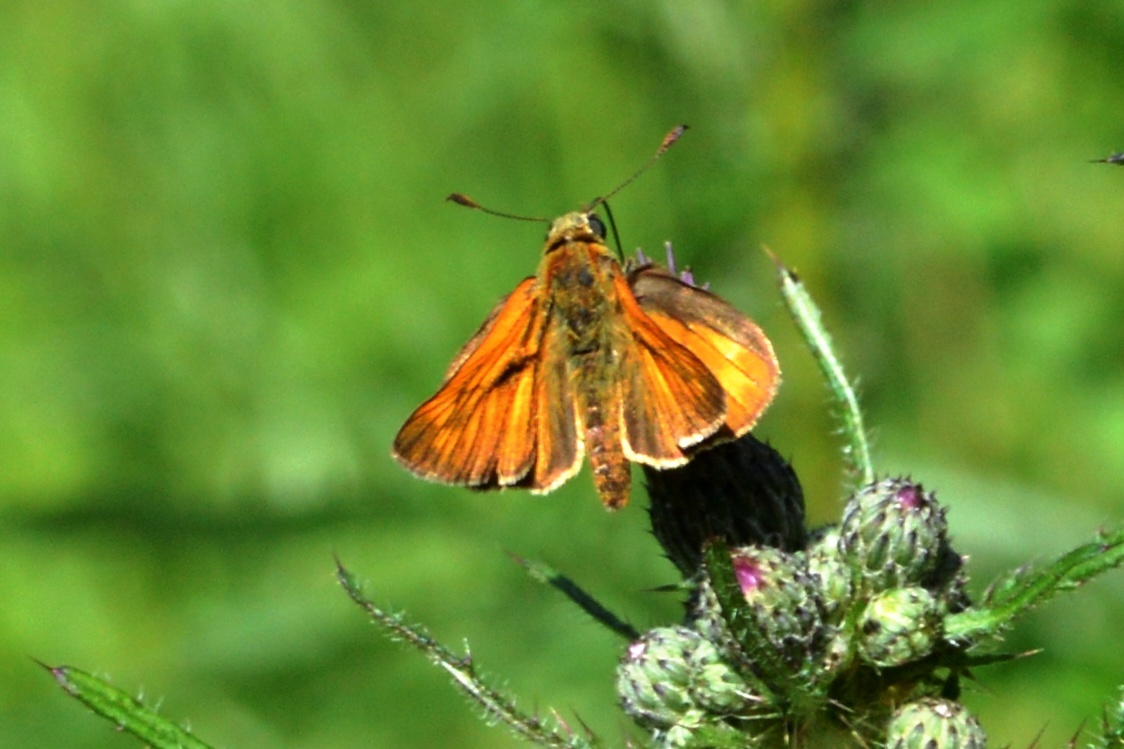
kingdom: Animalia
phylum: Arthropoda
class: Insecta
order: Lepidoptera
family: Hesperiidae
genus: Ochlodes
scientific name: Ochlodes venata
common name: Large skipper
